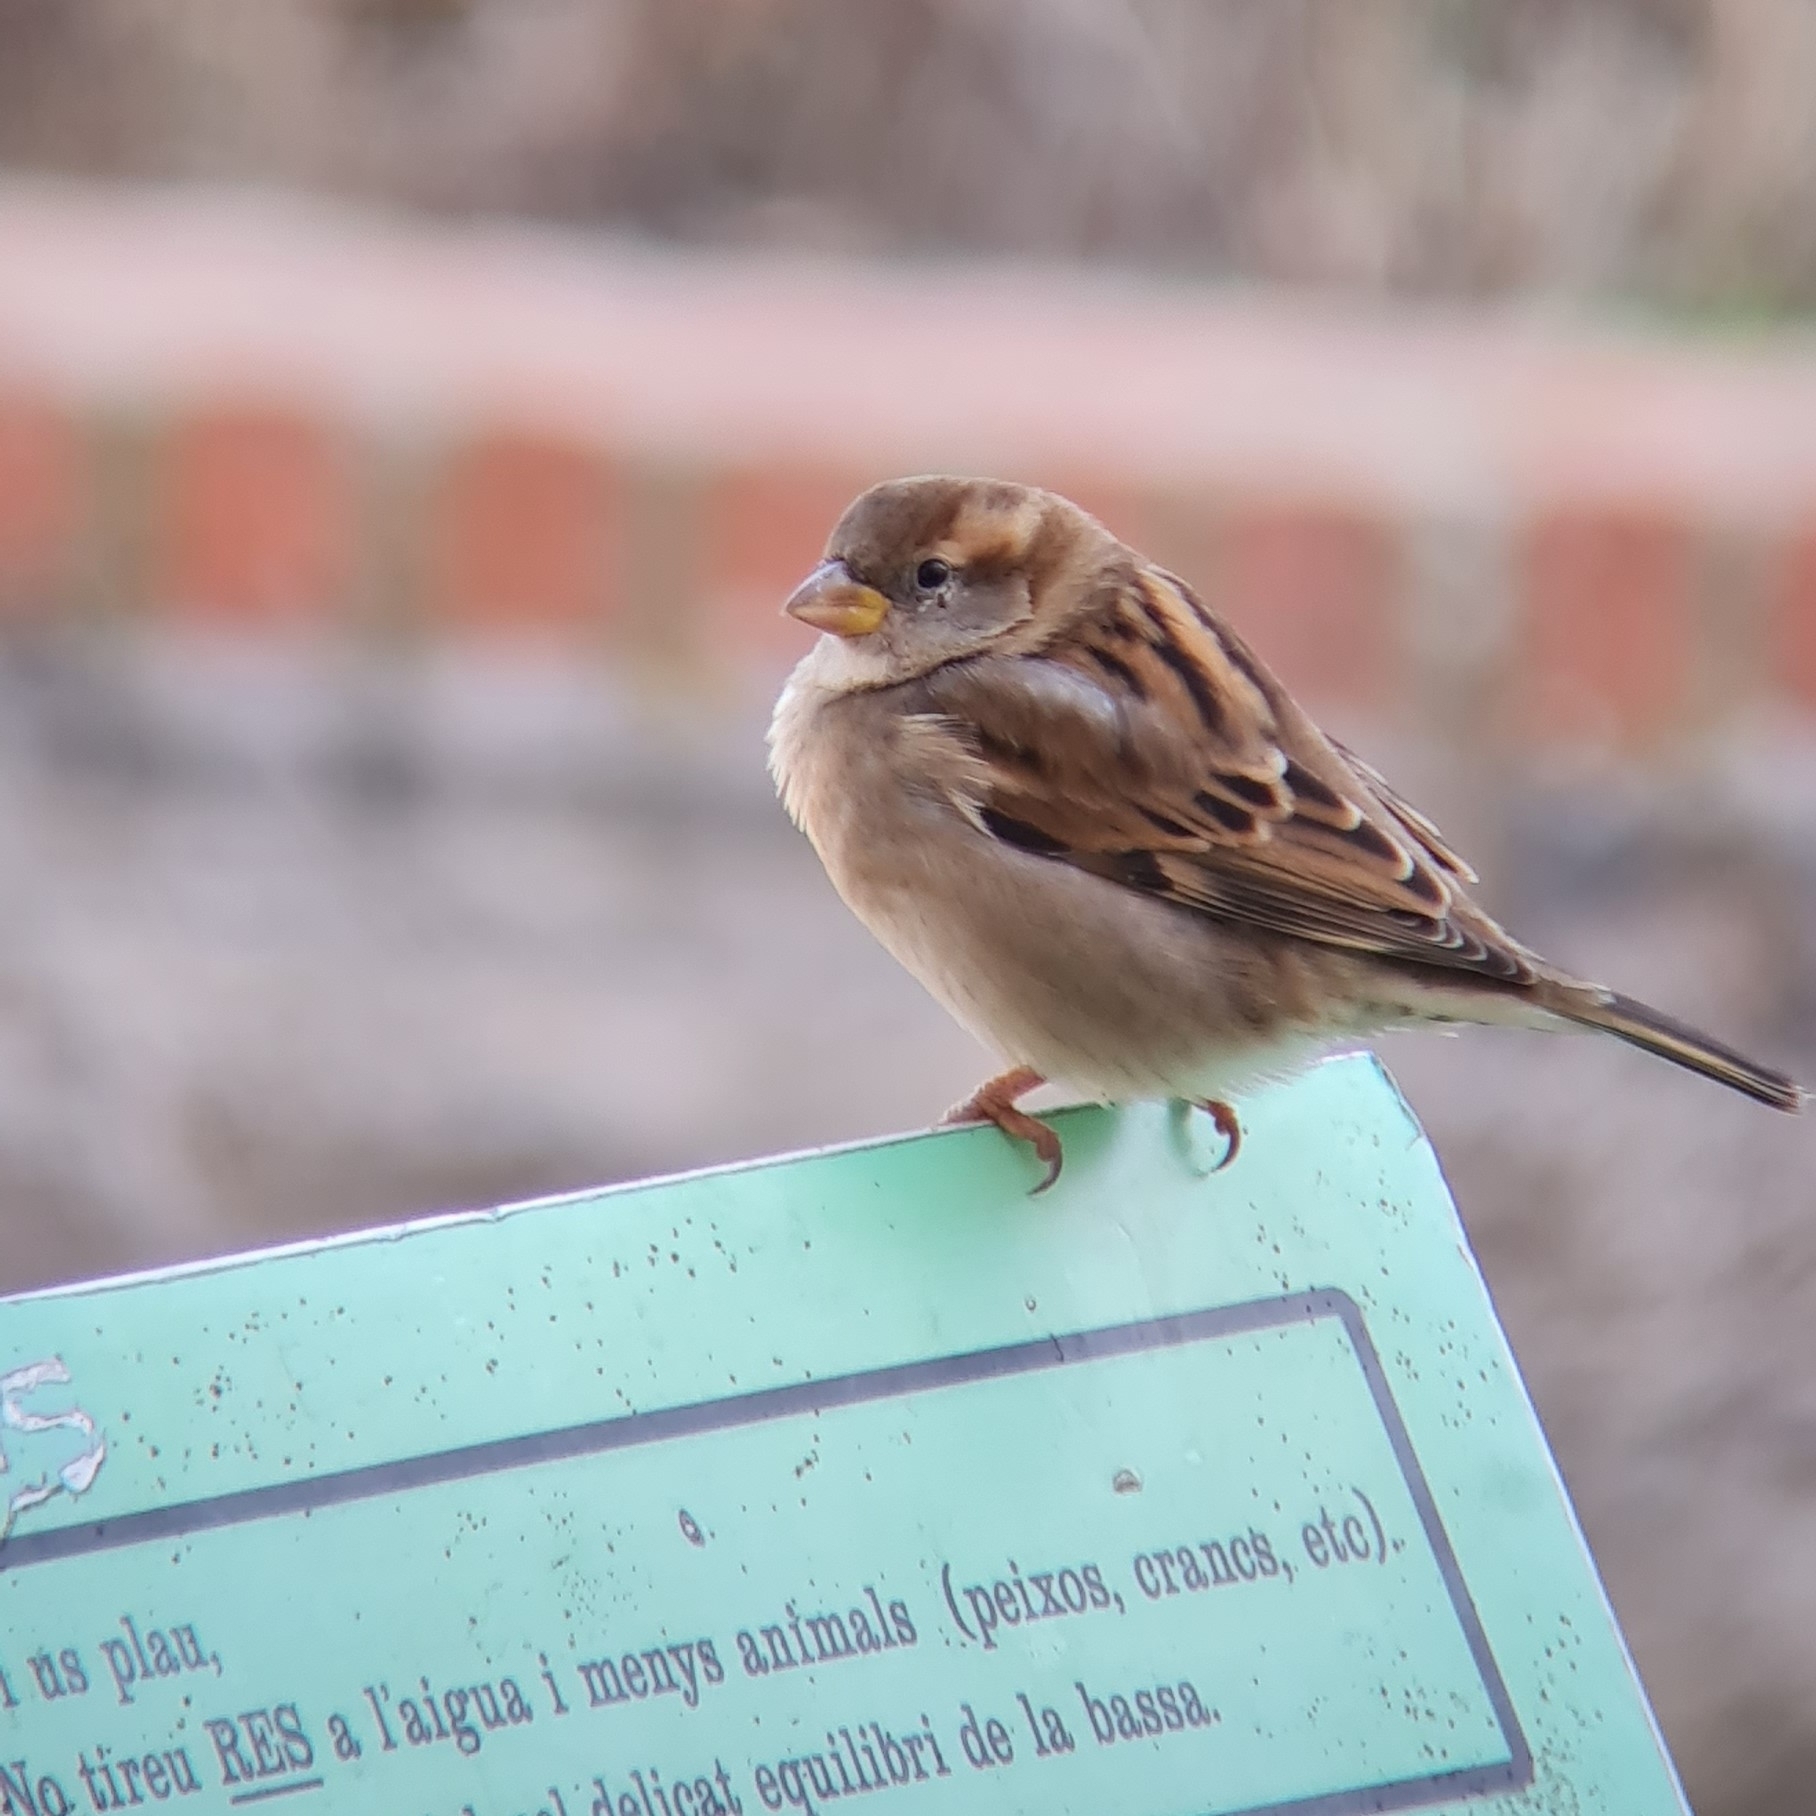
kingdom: Animalia
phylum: Chordata
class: Aves
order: Passeriformes
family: Passeridae
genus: Passer
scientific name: Passer domesticus
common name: House sparrow
